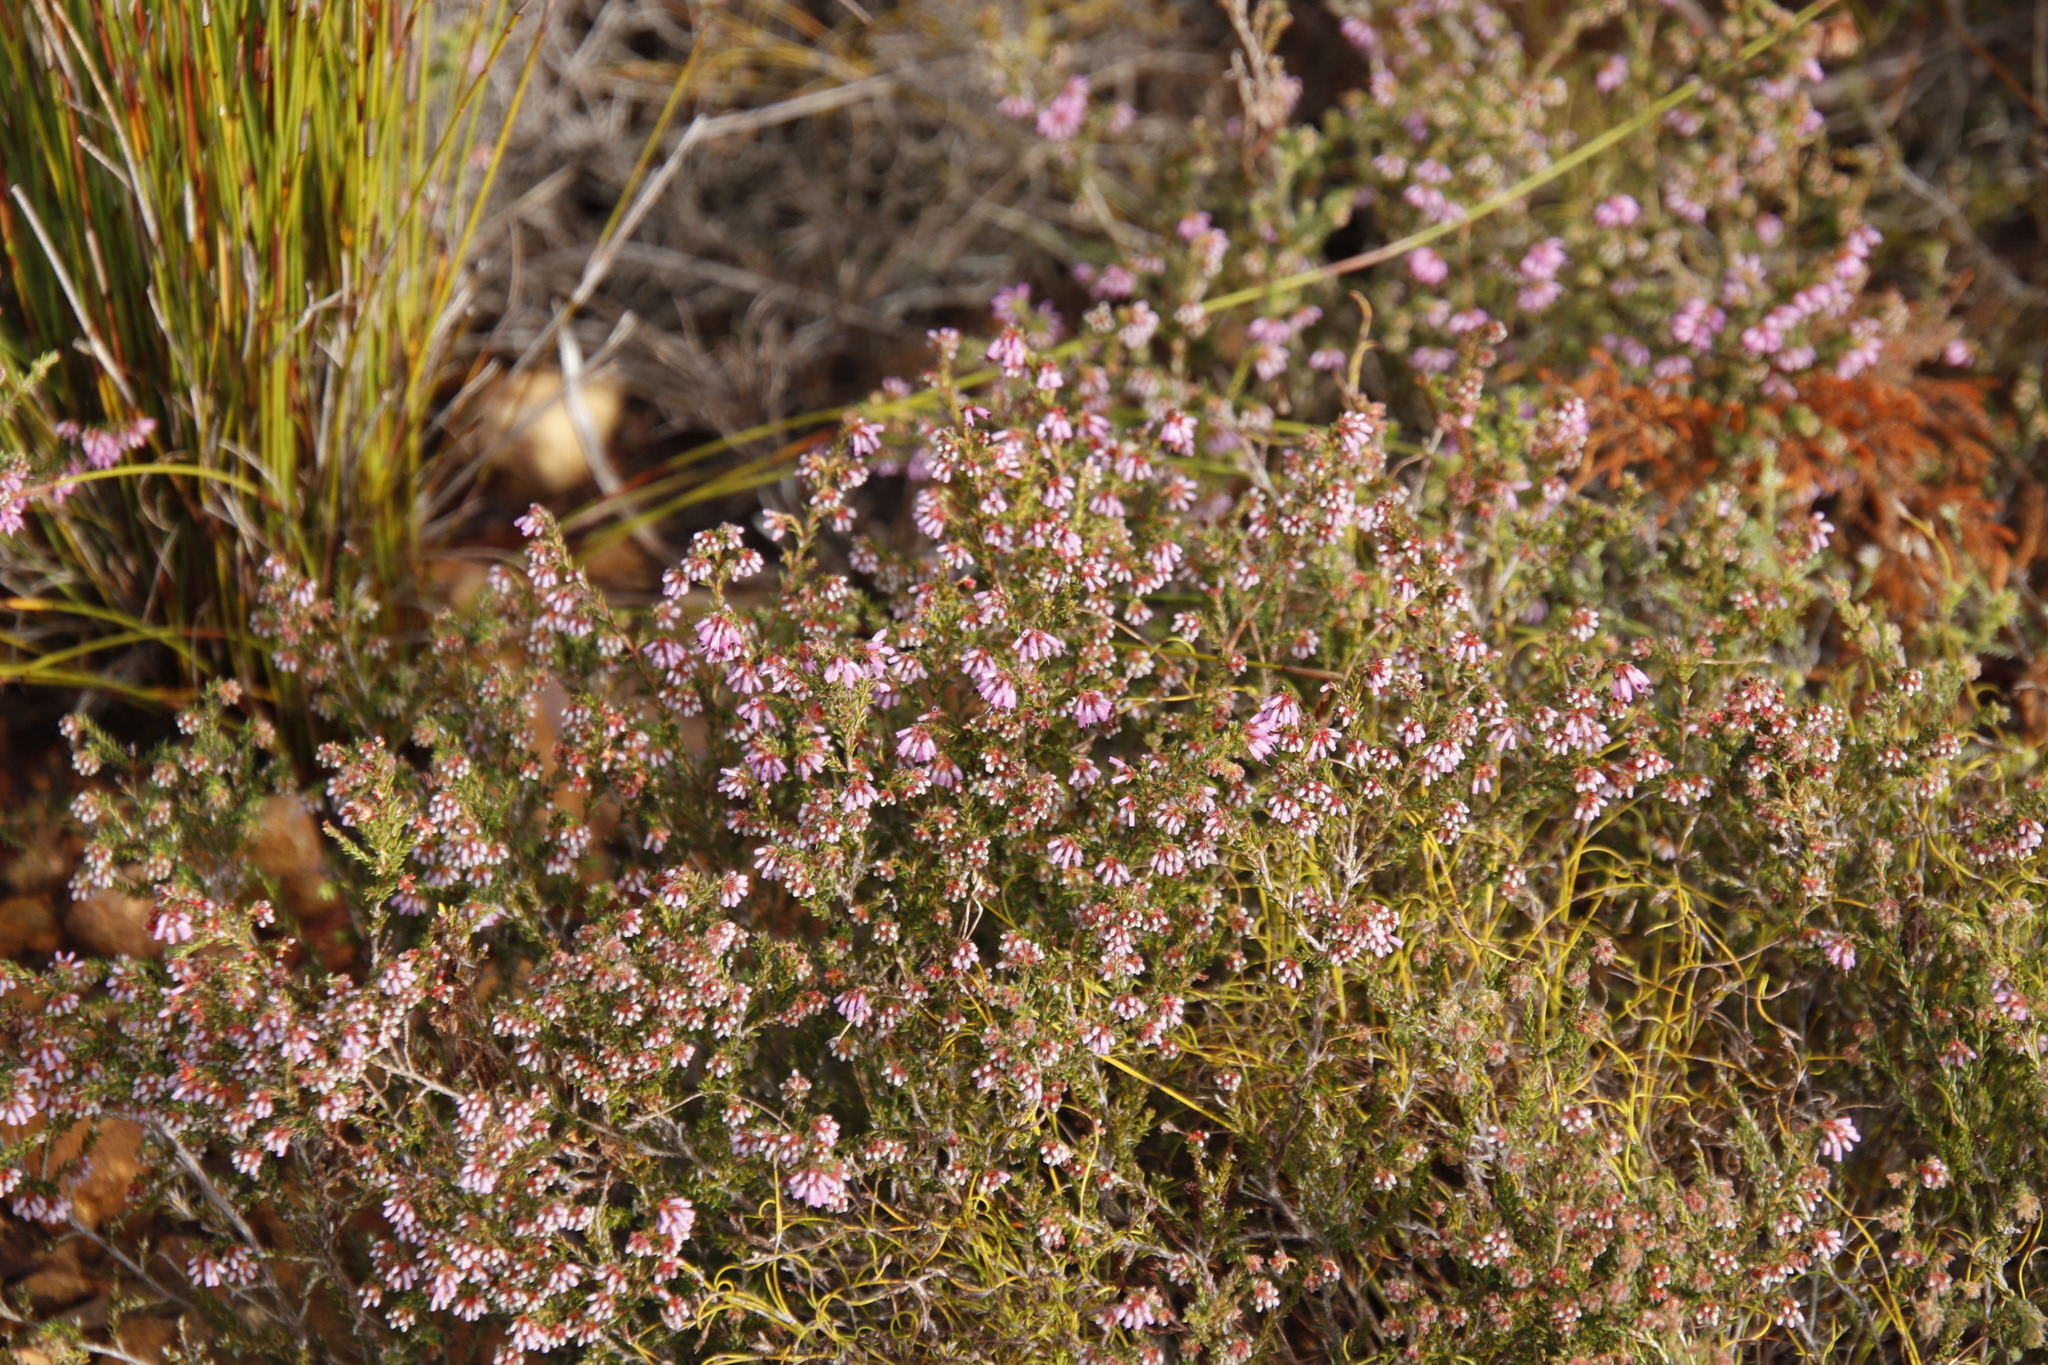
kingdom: Plantae
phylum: Tracheophyta
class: Magnoliopsida
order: Ericales
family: Ericaceae
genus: Erica
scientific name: Erica glabella
